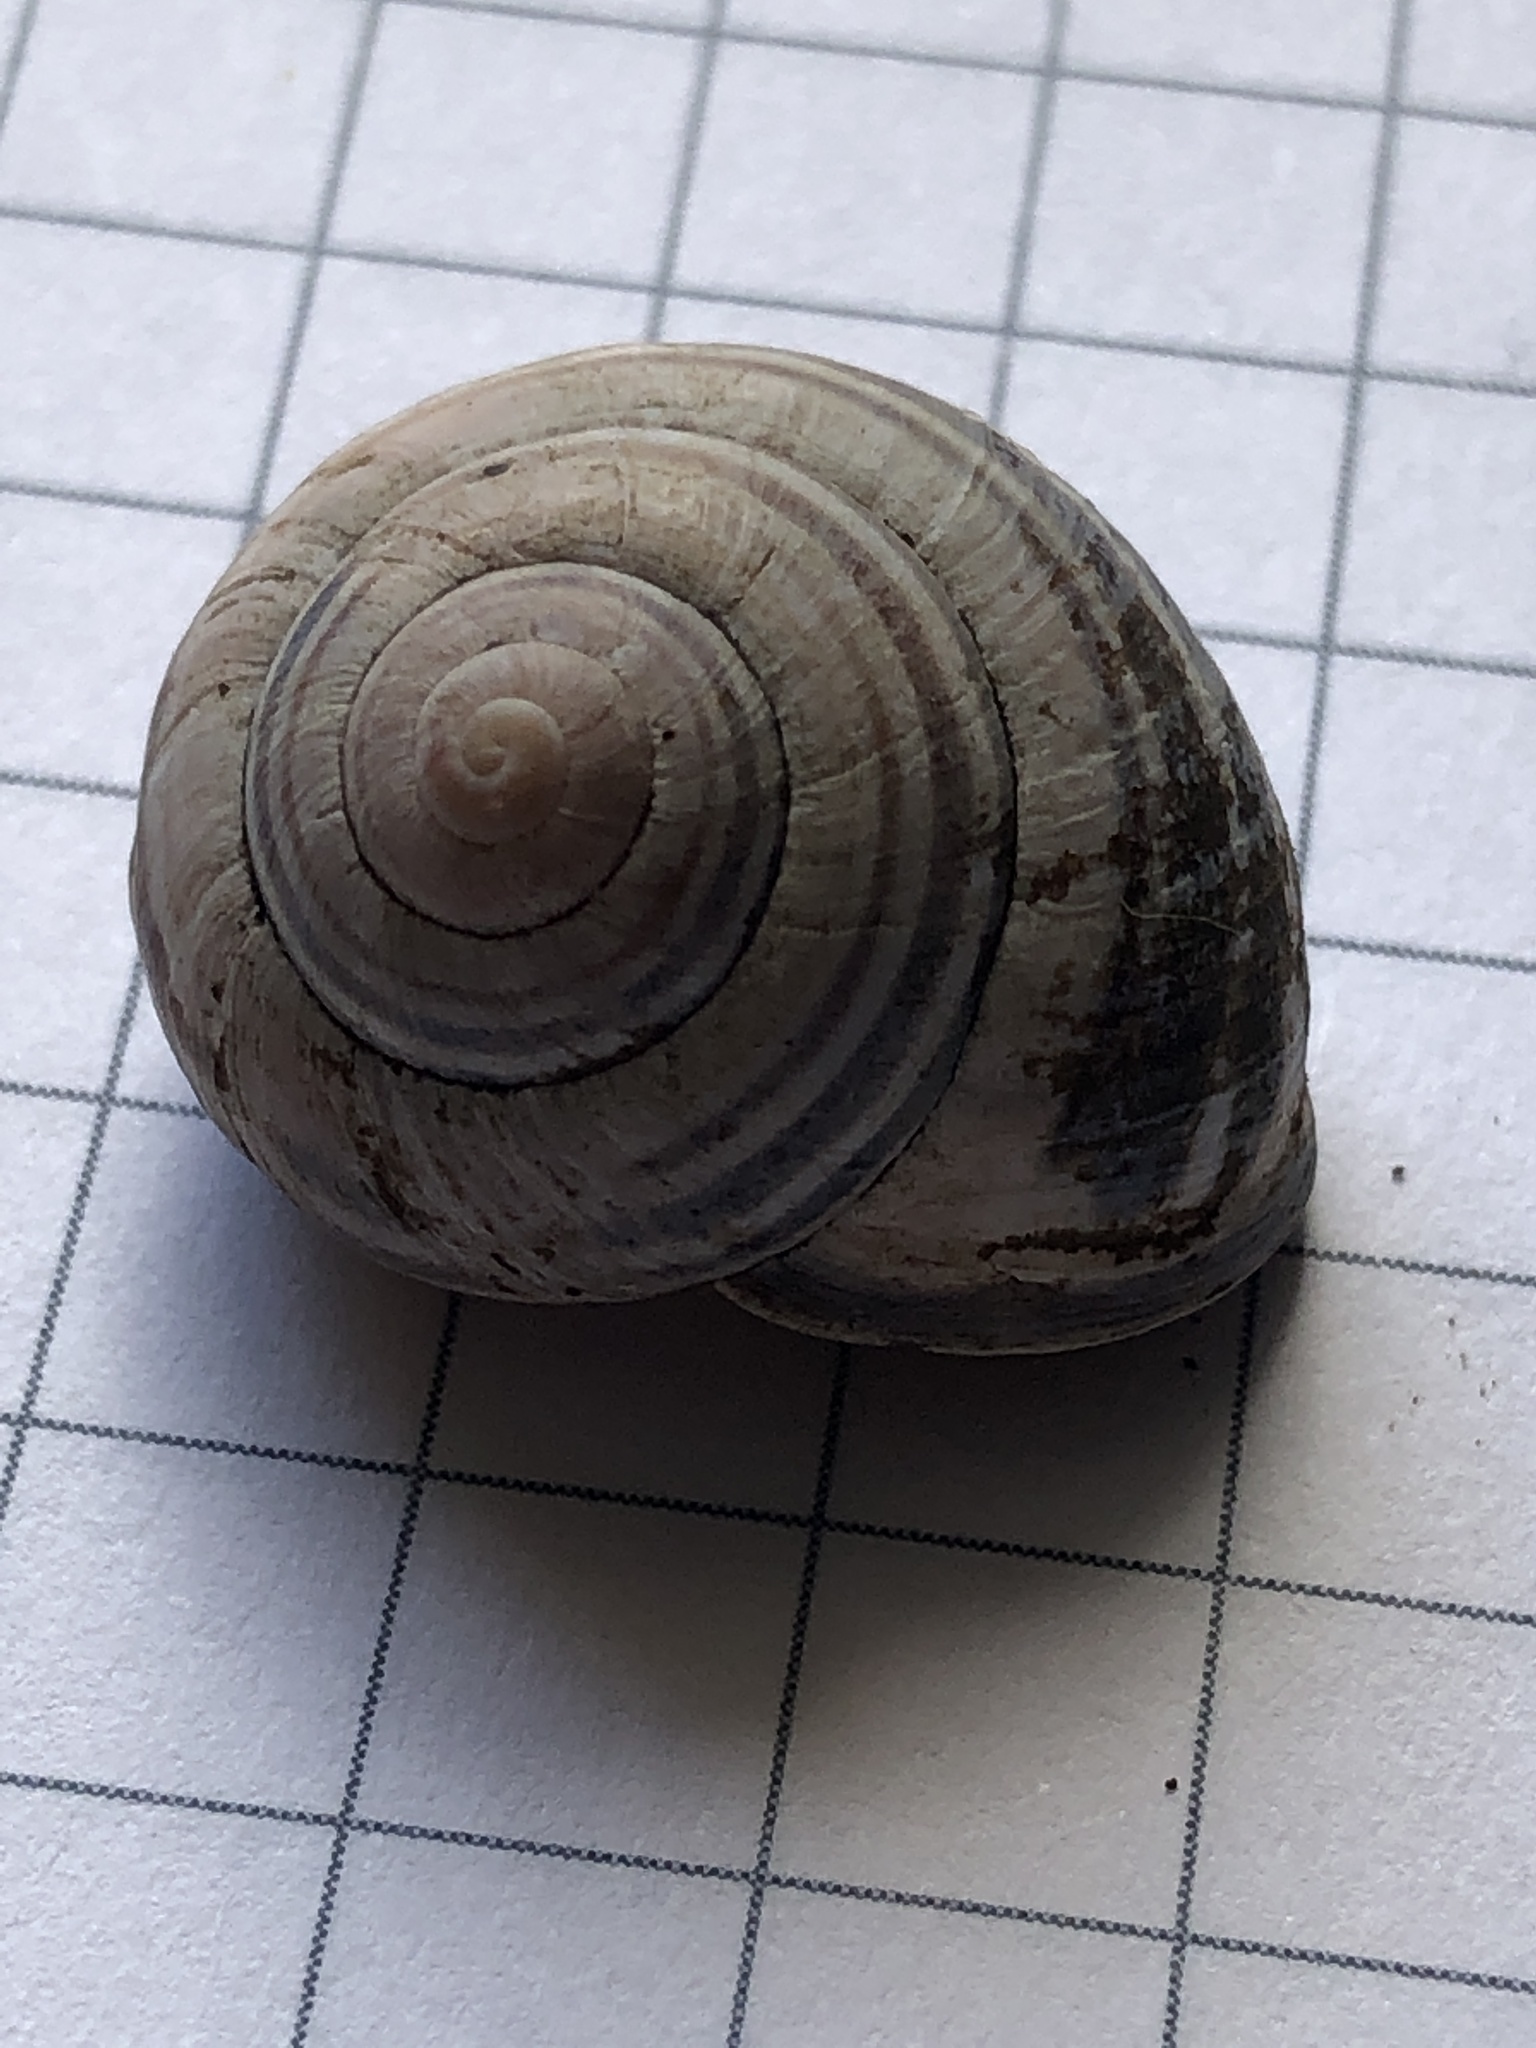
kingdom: Animalia
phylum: Mollusca
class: Gastropoda
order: Stylommatophora
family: Helicidae
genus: Cepaea
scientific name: Cepaea nemoralis
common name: Grovesnail
